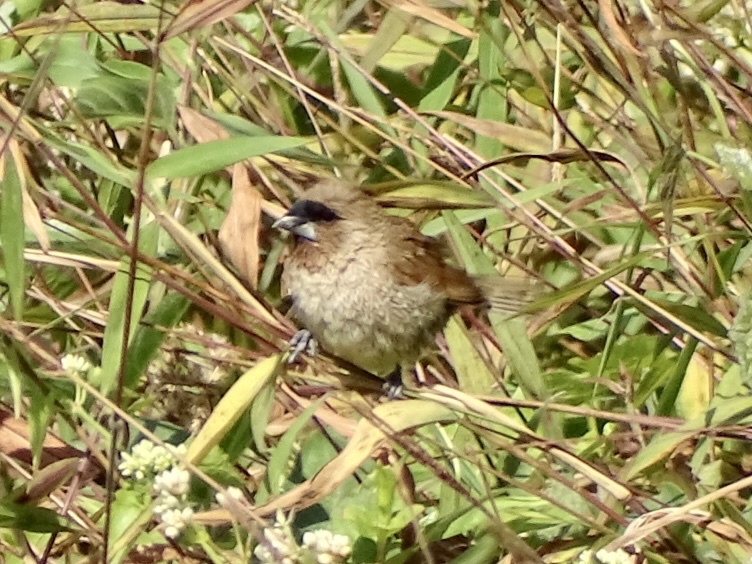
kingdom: Animalia
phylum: Chordata
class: Aves
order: Passeriformes
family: Estrildidae
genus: Lonchura
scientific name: Lonchura punctulata
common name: Scaly-breasted munia
